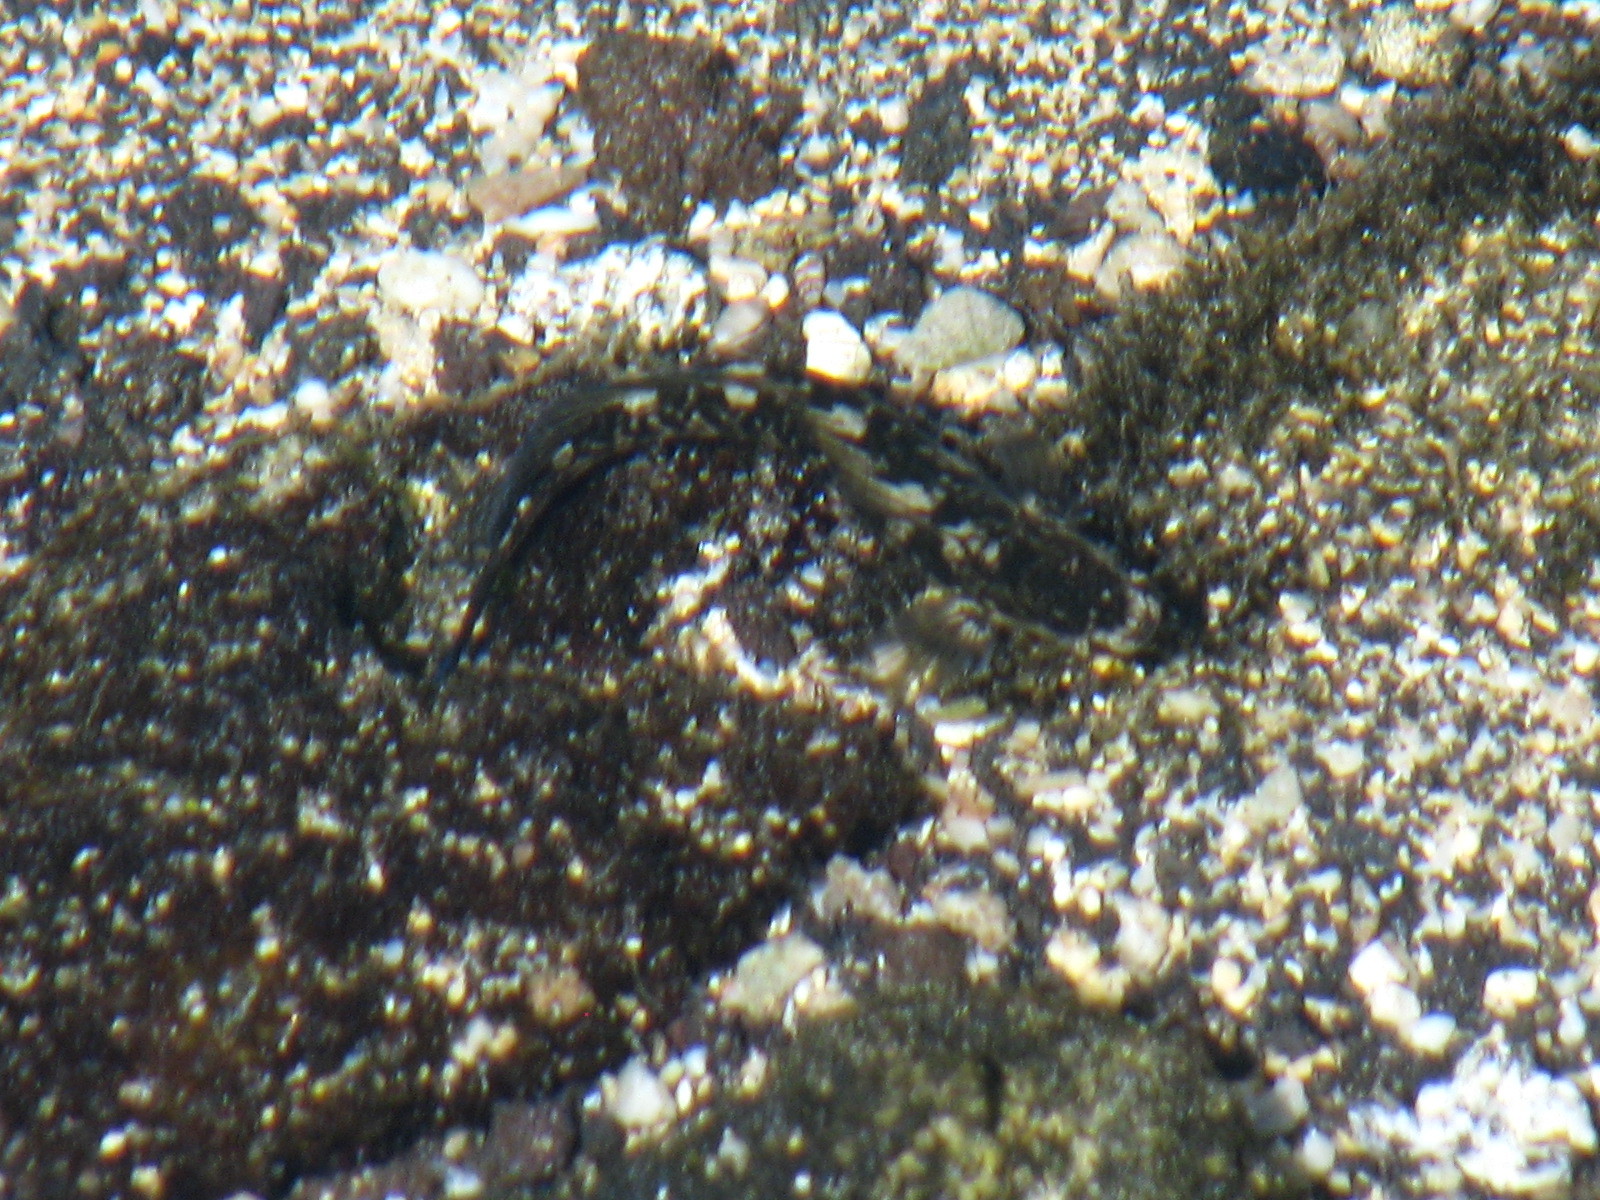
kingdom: Animalia
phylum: Chordata
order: Perciformes
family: Blenniidae
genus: Istiblennius
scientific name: Istiblennius zebra
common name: Zebra blenny
